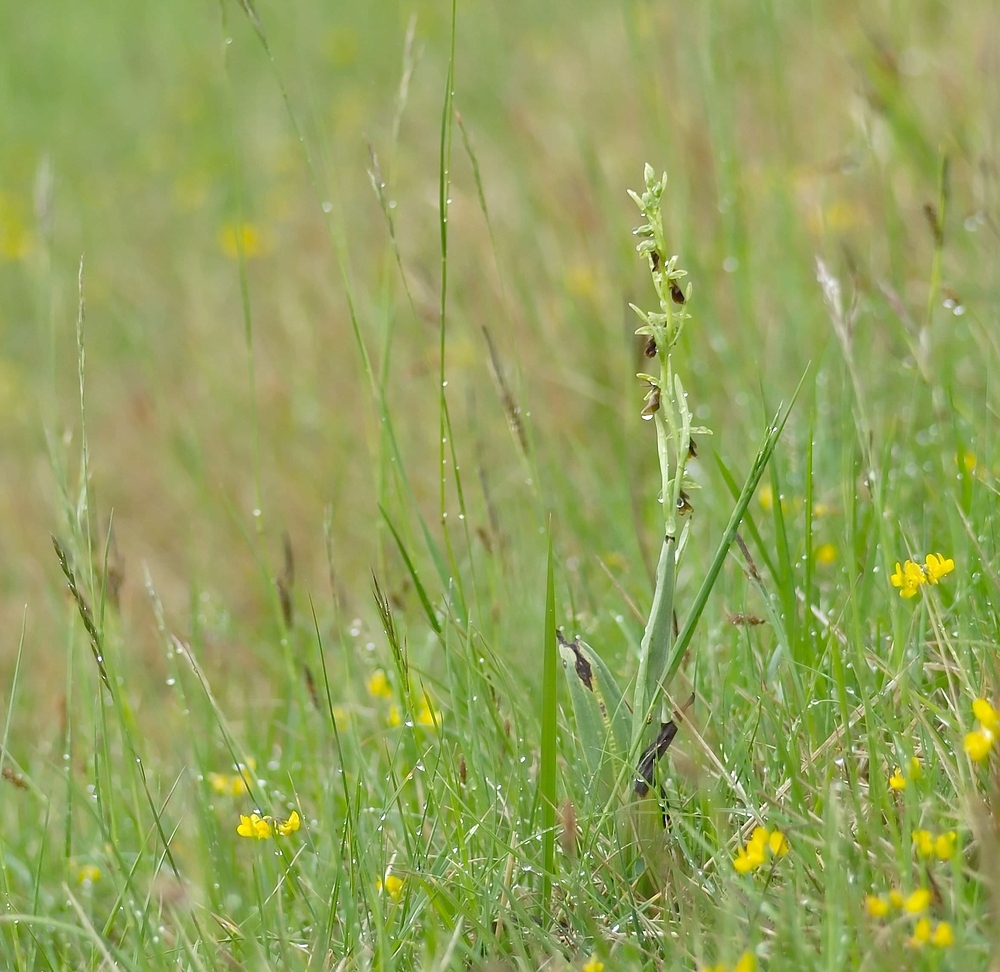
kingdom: Plantae
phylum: Tracheophyta
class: Liliopsida
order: Asparagales
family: Orchidaceae
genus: Ophrys
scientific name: Ophrys insectifera
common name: Fly orchid
